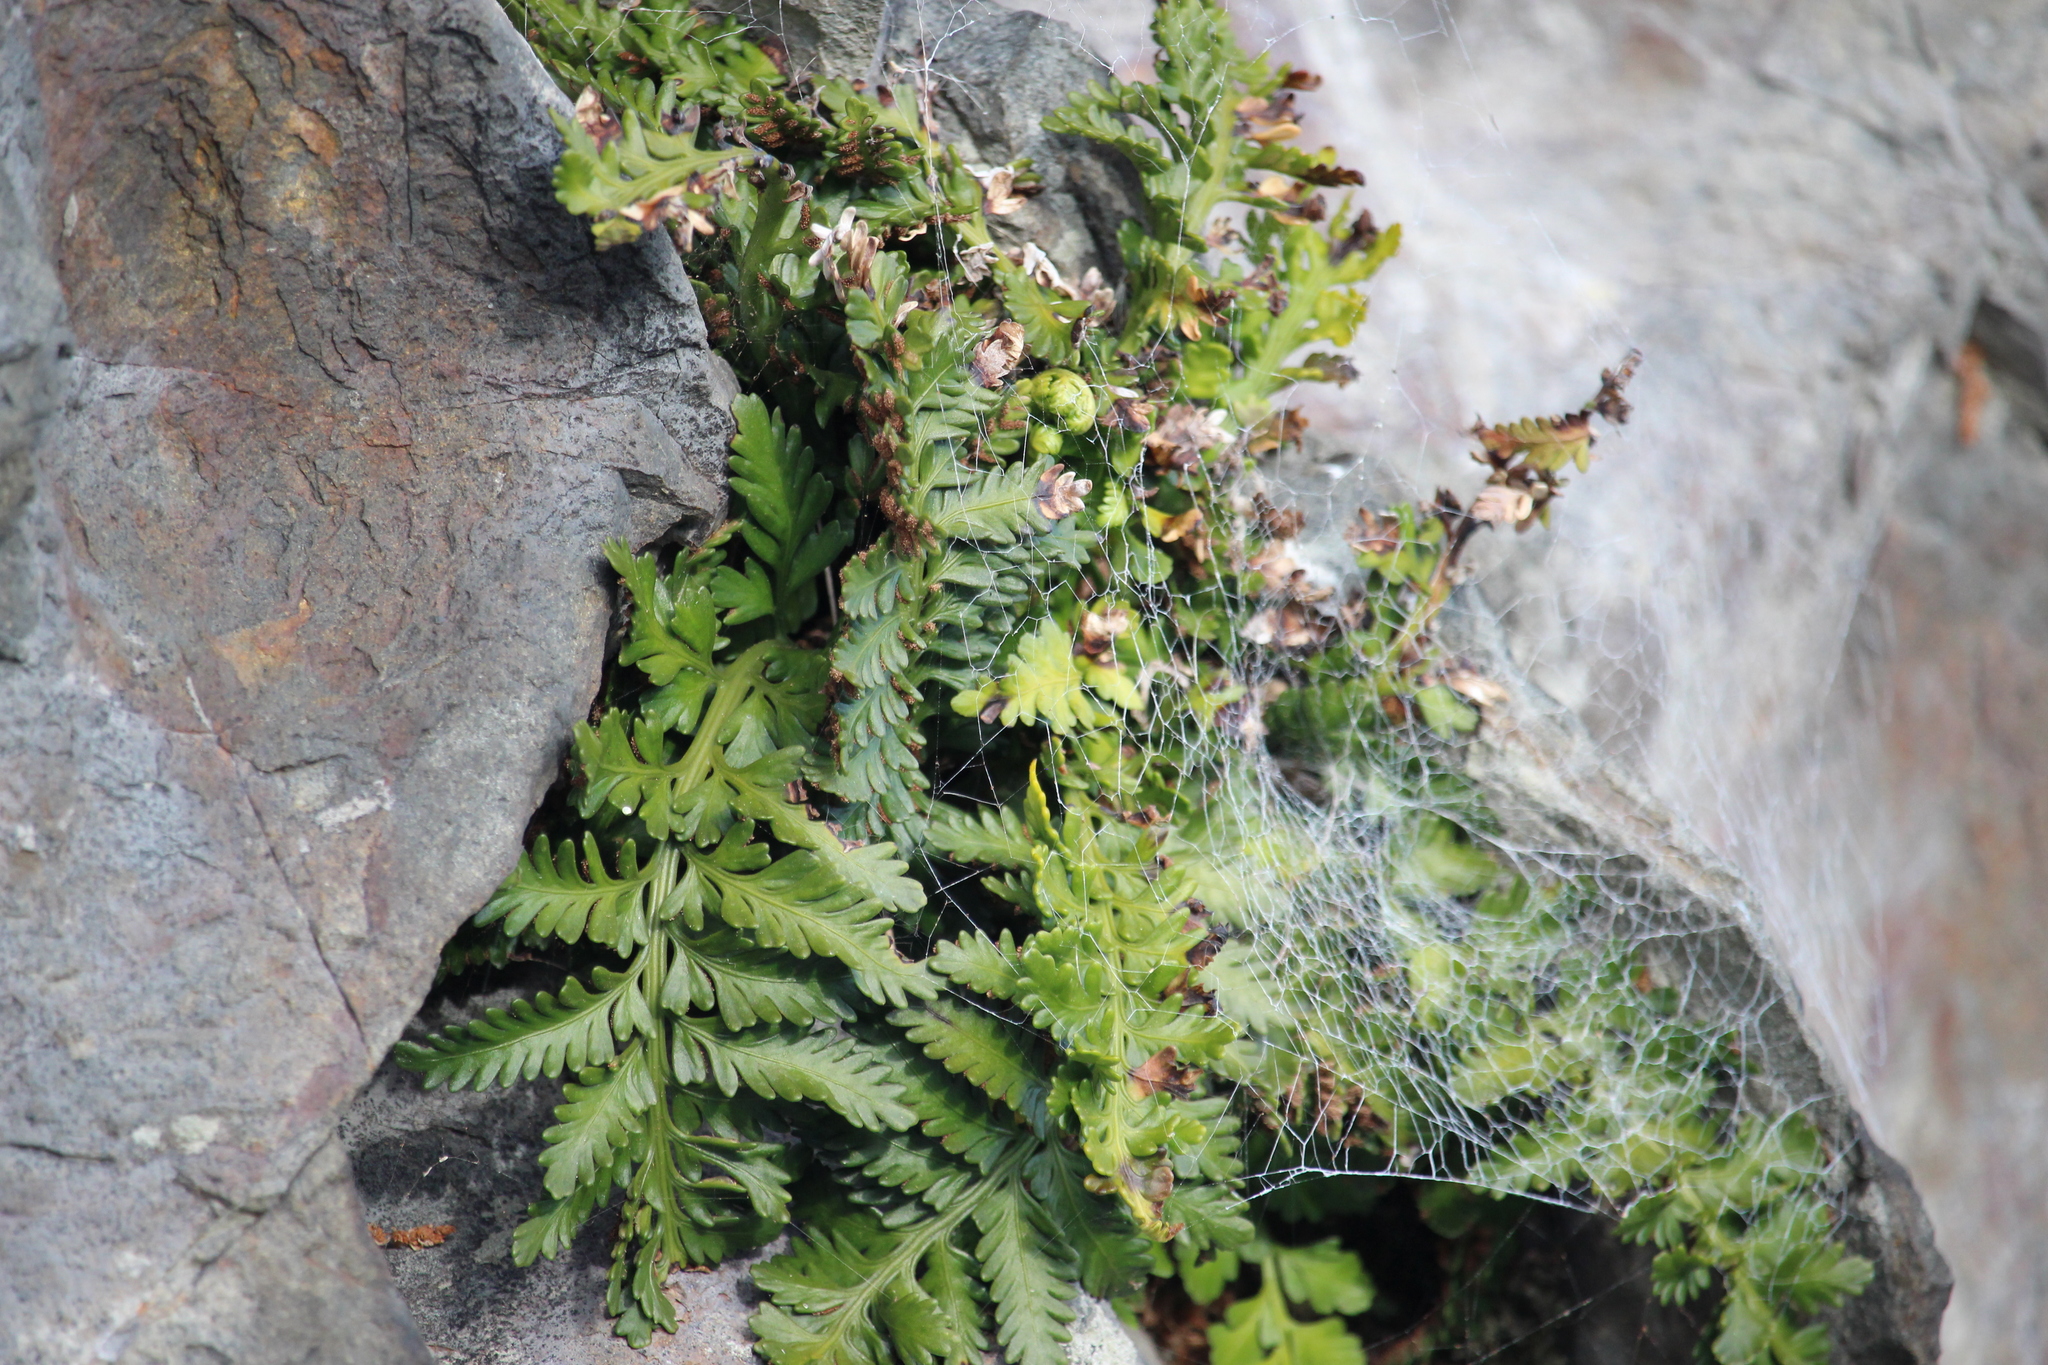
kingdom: Plantae
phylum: Tracheophyta
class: Polypodiopsida
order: Polypodiales
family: Aspleniaceae
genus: Asplenium
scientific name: Asplenium appendiculatum
